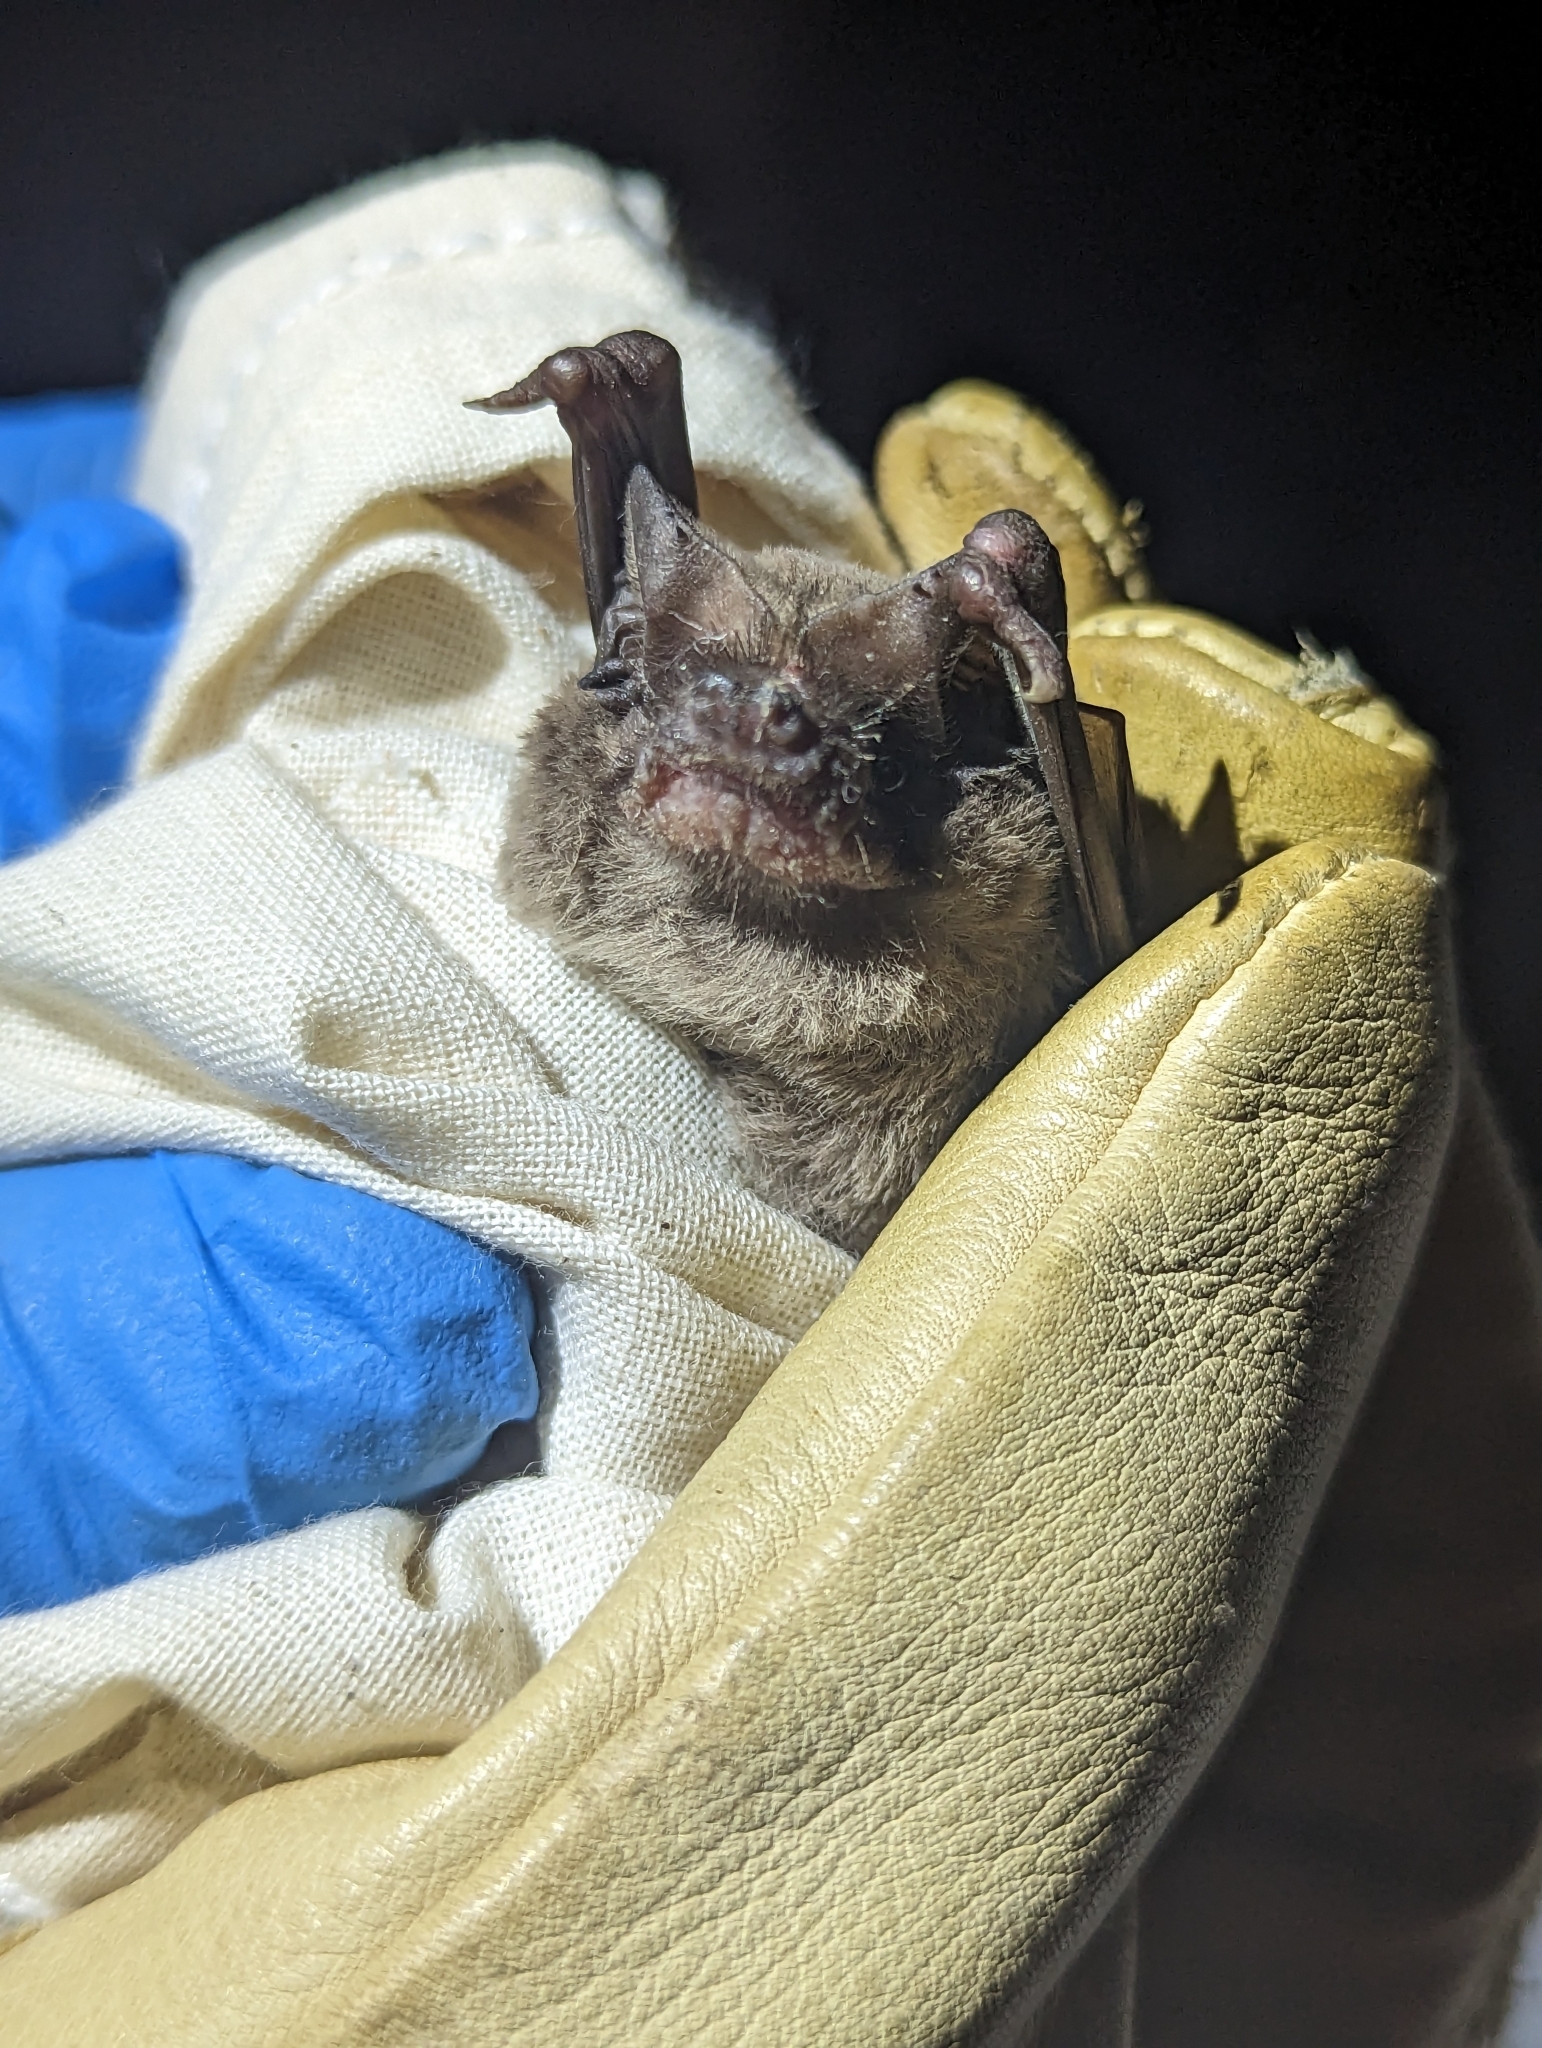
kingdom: Animalia
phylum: Chordata
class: Mammalia
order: Chiroptera
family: Molossidae
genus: Tadarida
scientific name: Tadarida brasiliensis
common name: Mexican free-tailed bat
